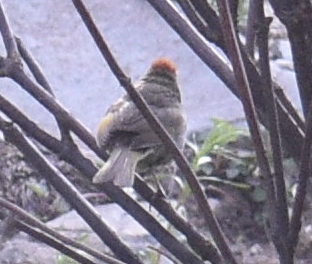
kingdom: Animalia
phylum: Chordata
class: Aves
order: Passeriformes
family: Passerellidae
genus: Pipilo
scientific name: Pipilo chlorurus
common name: Green-tailed towhee
